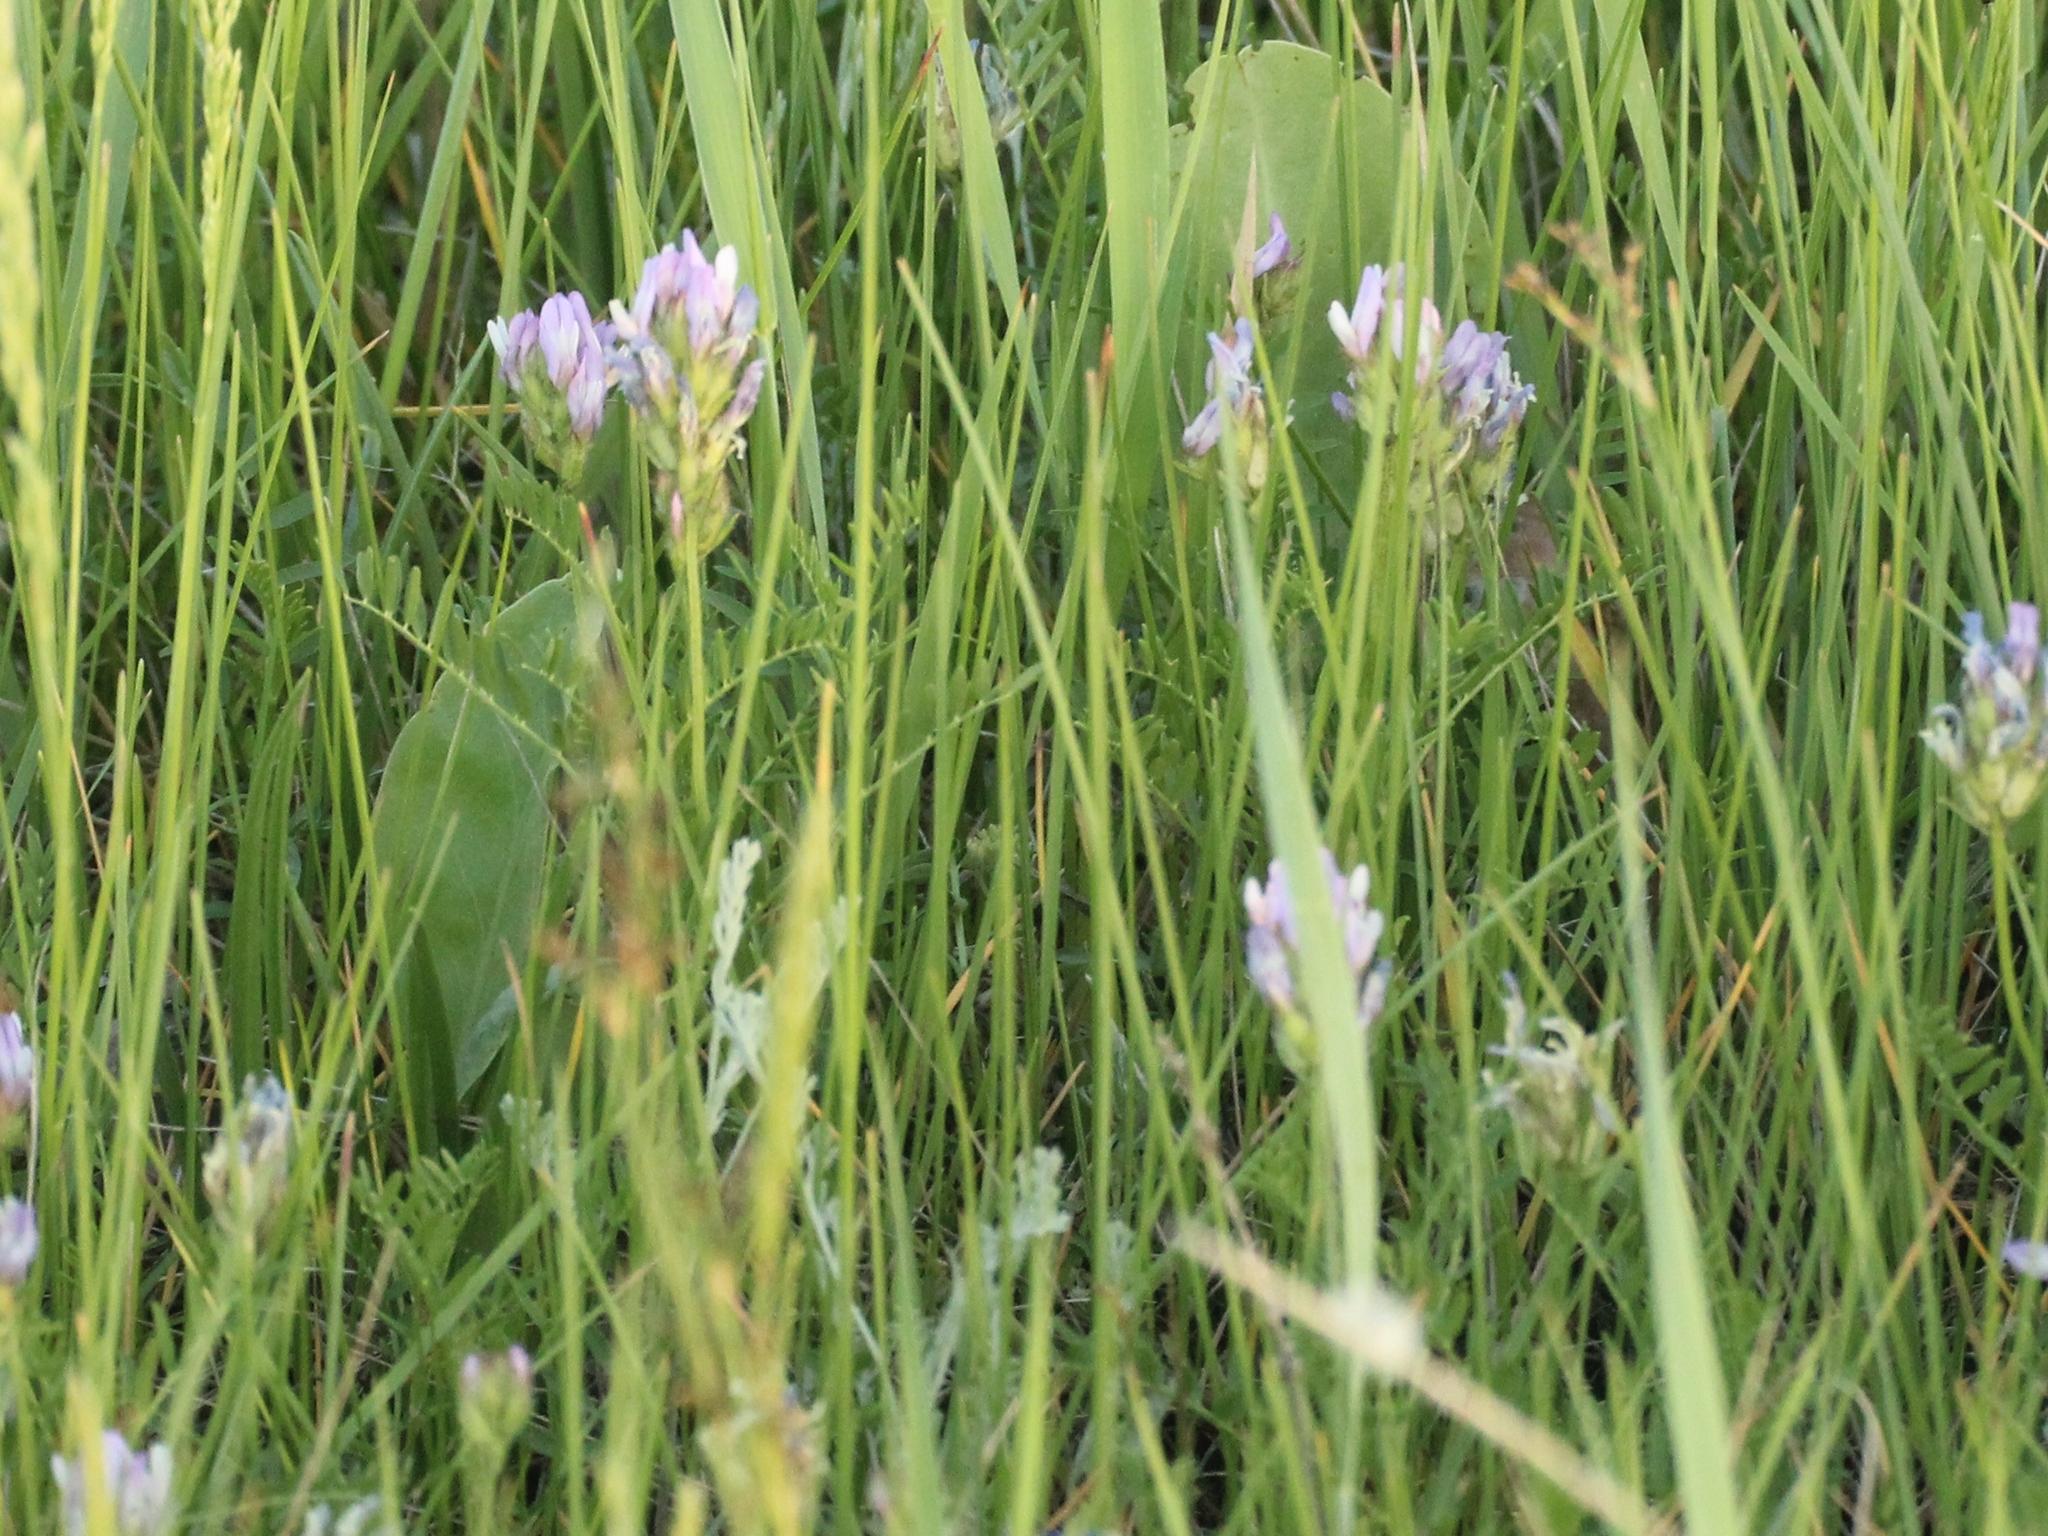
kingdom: Plantae
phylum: Tracheophyta
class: Magnoliopsida
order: Fabales
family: Fabaceae
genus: Astragalus
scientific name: Astragalus laxmannii
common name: Laxmann's milk-vetch
